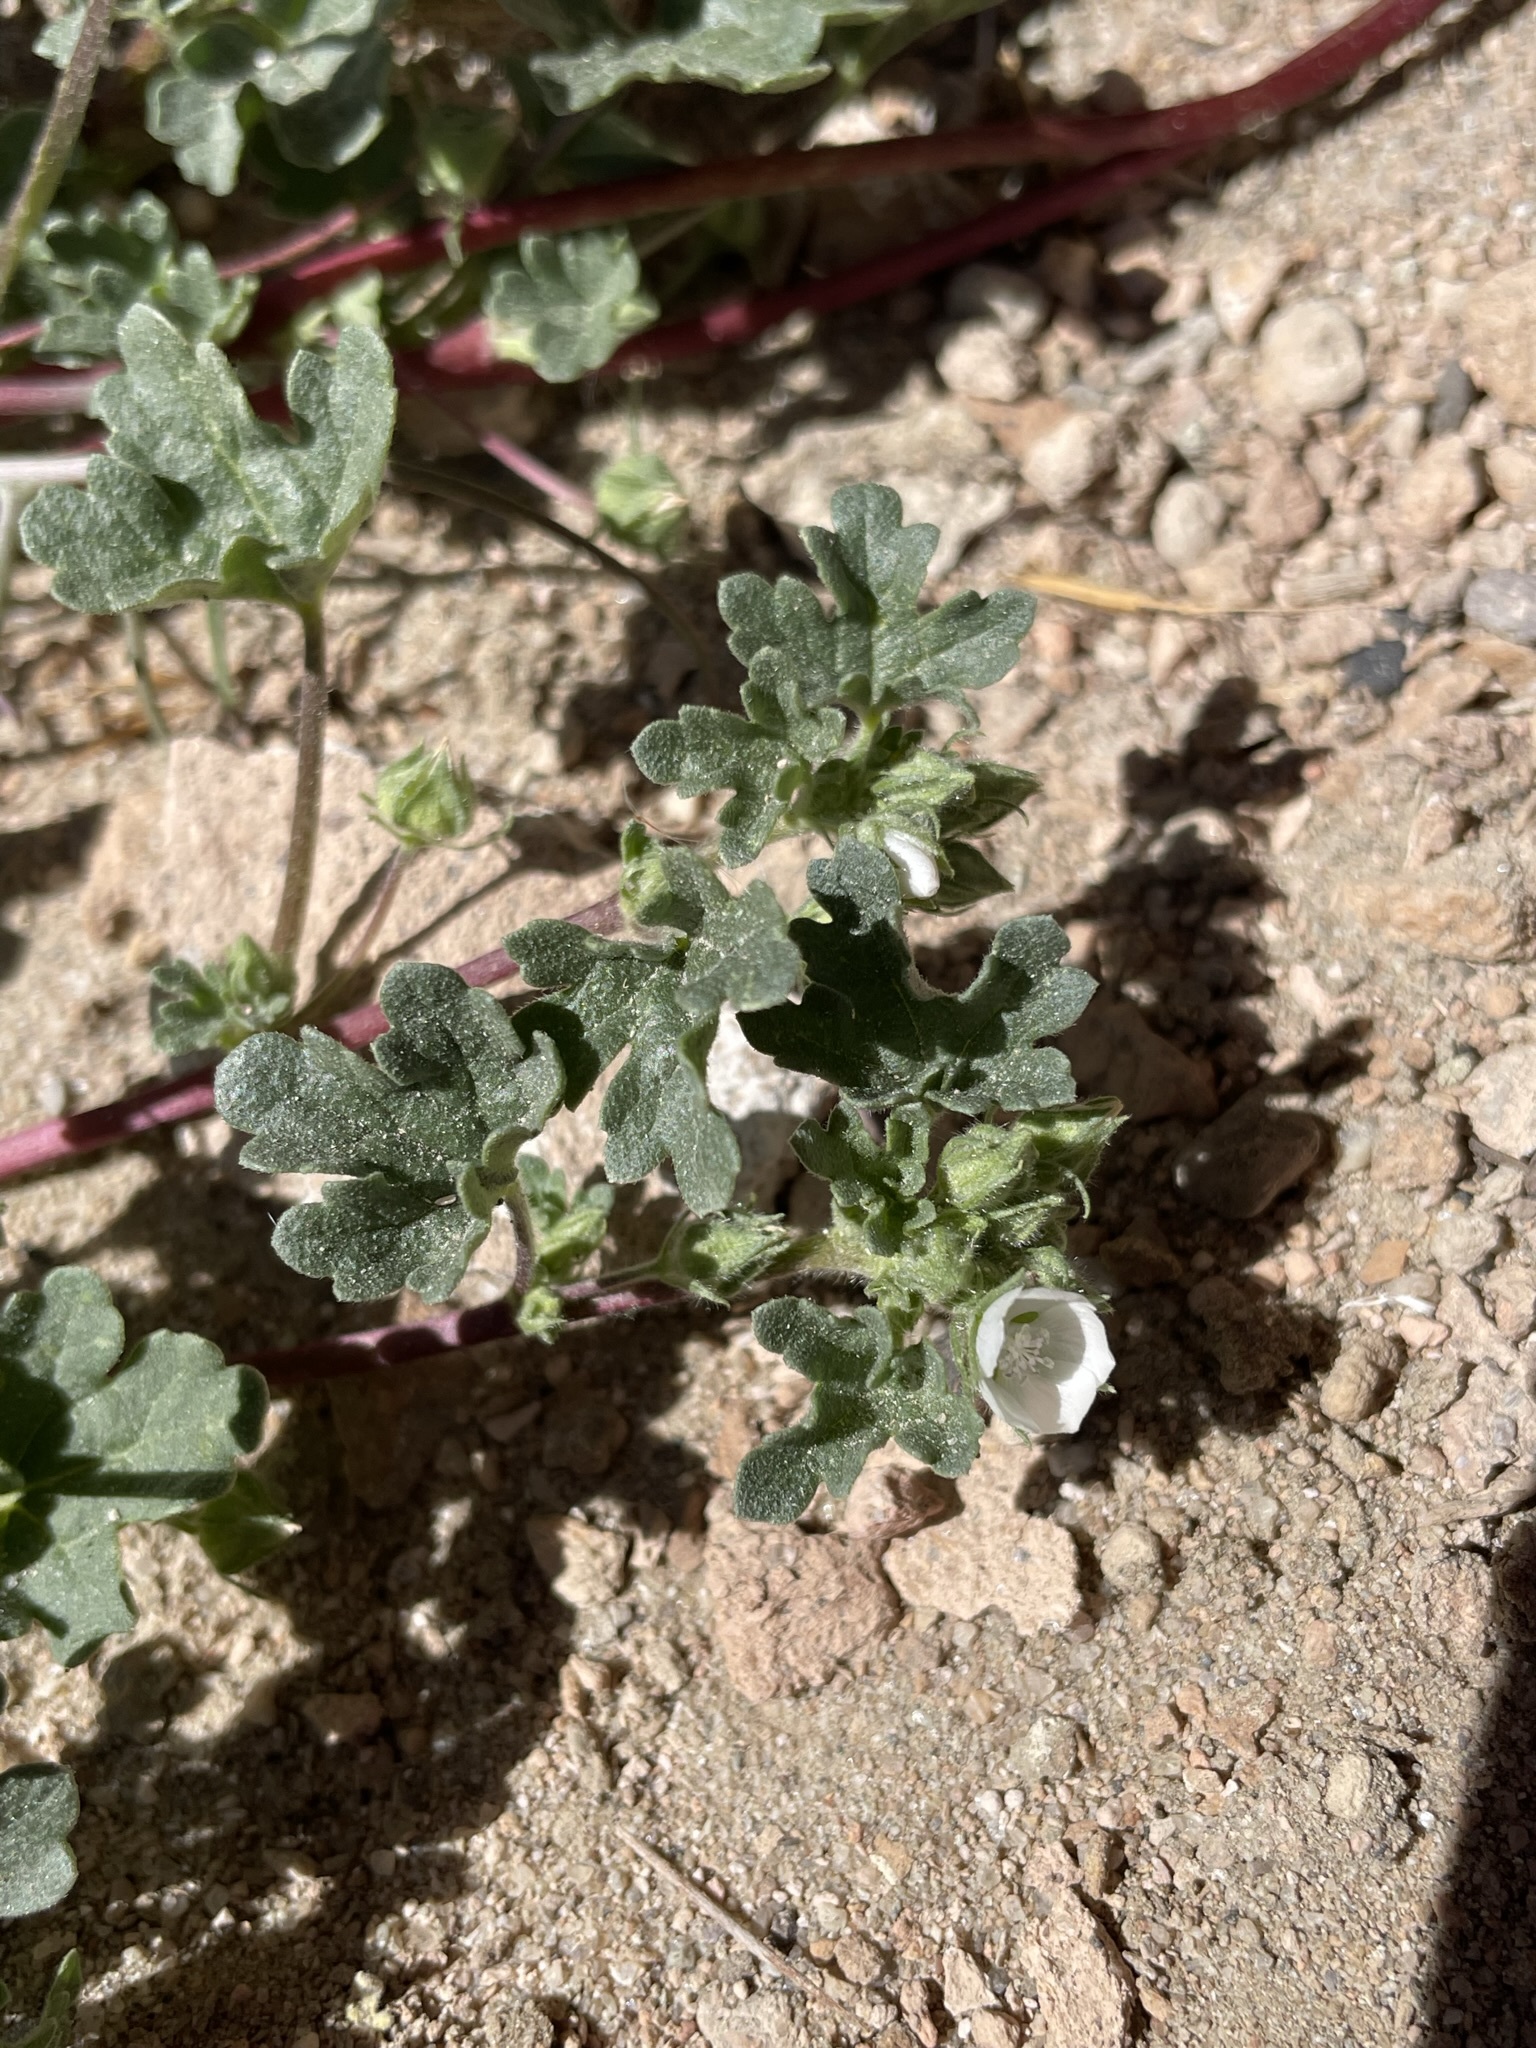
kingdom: Plantae
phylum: Tracheophyta
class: Magnoliopsida
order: Malvales
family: Malvaceae
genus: Eremalche
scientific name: Eremalche exilis
